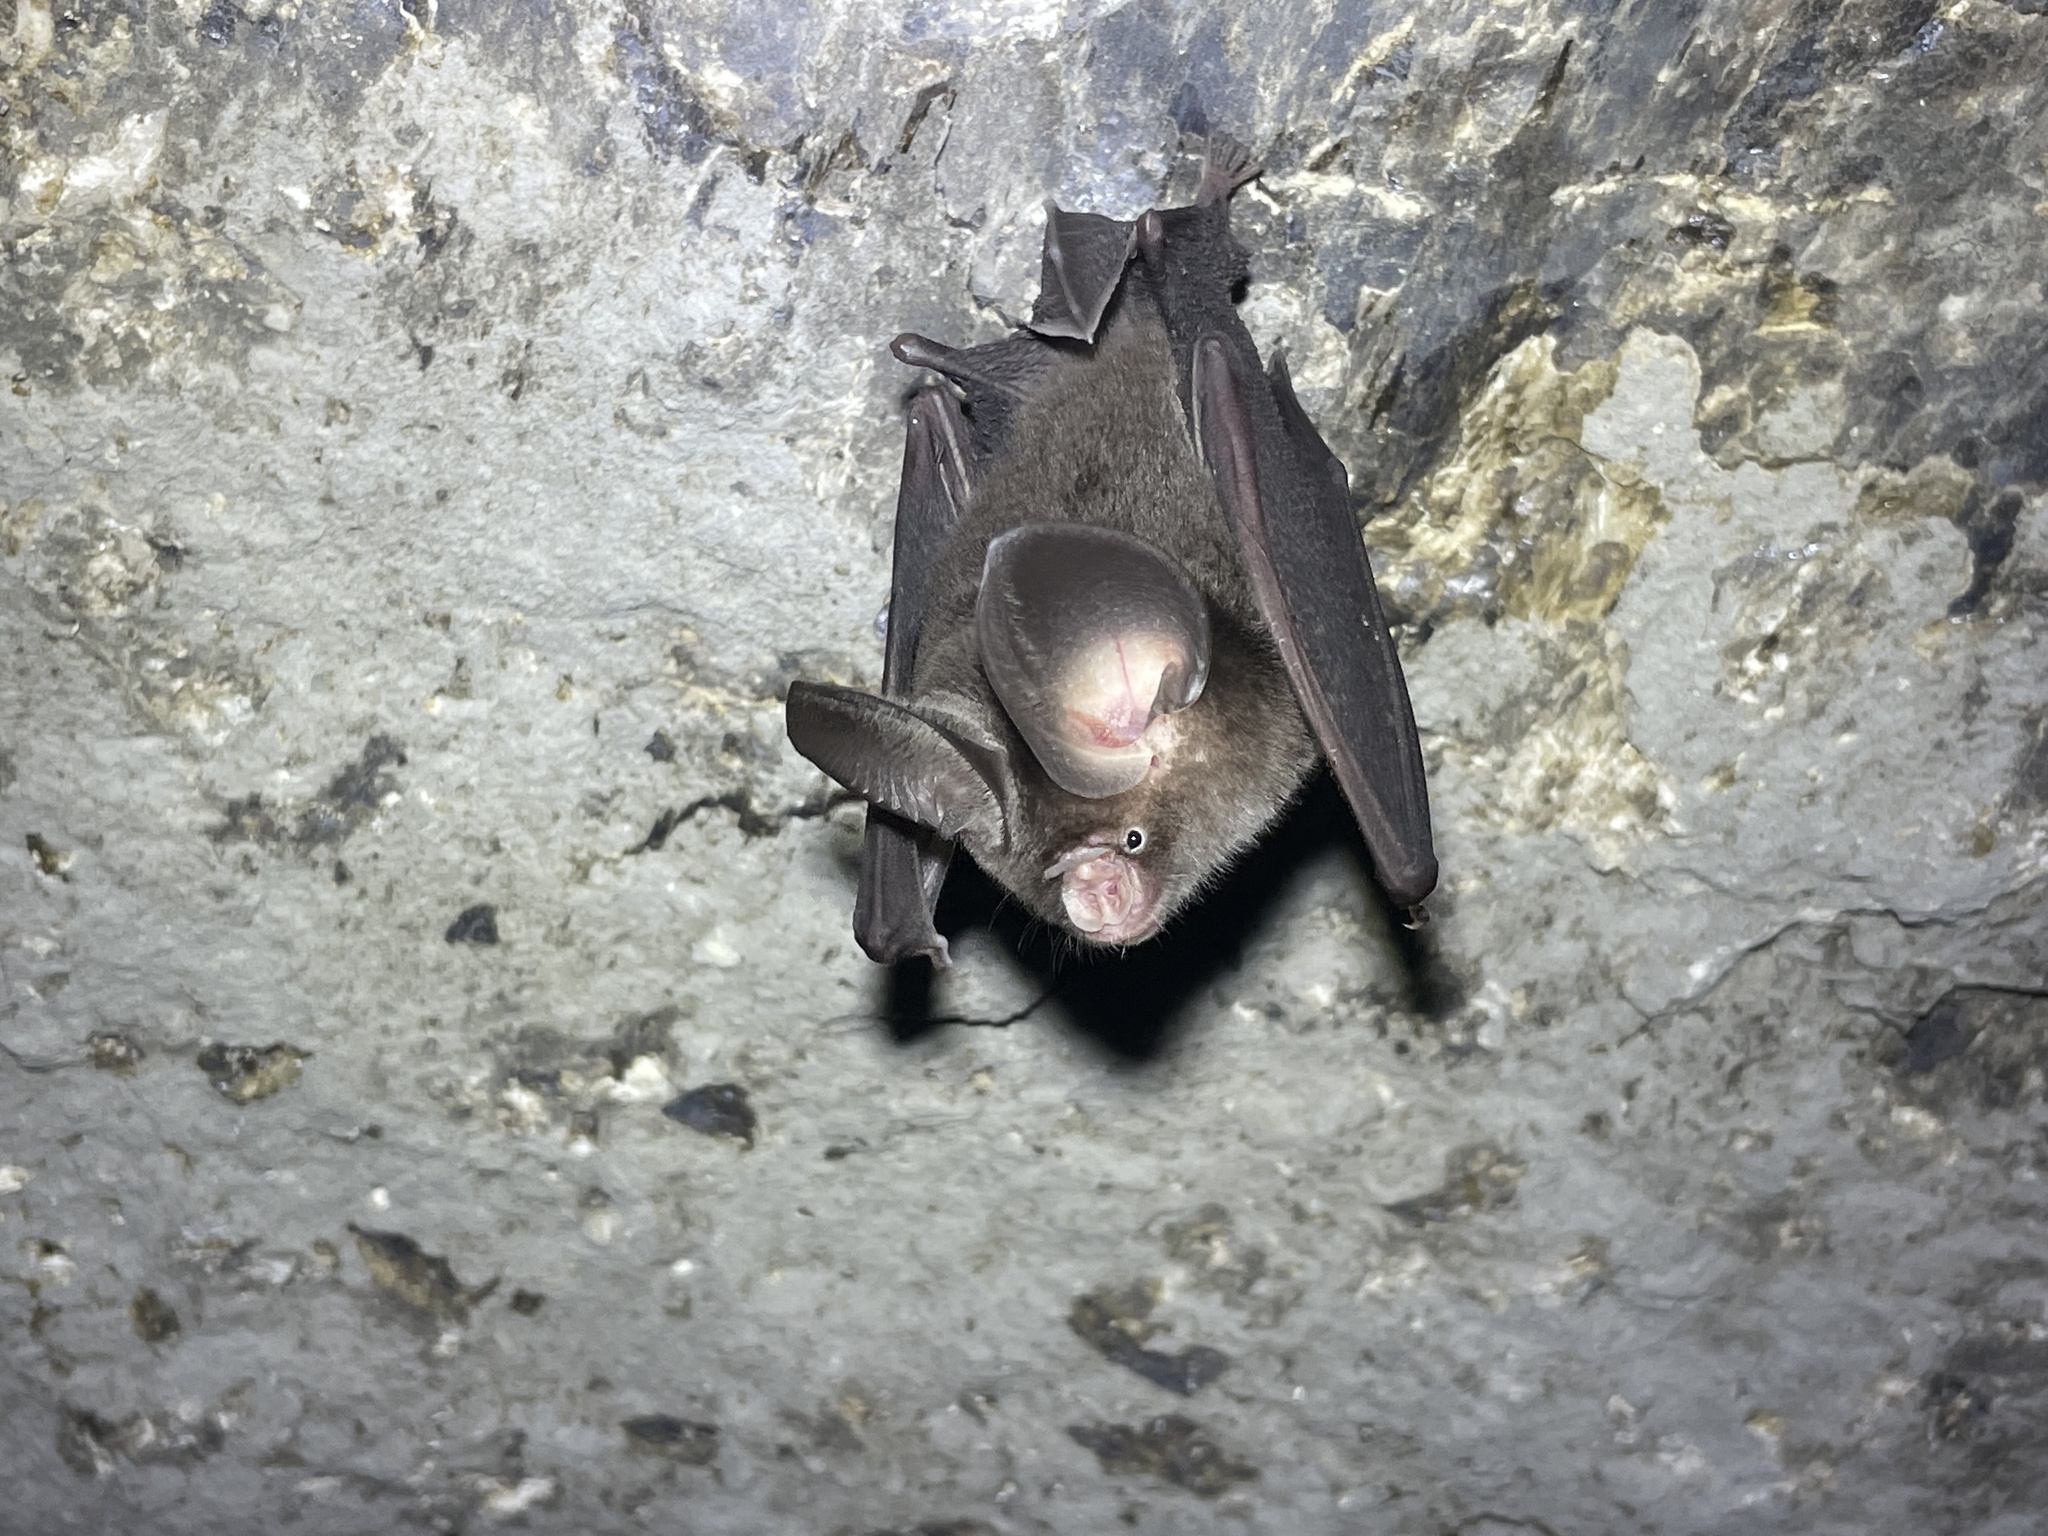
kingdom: Animalia
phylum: Chordata
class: Mammalia
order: Chiroptera
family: Hipposideridae
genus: Hipposideros
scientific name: Hipposideros gentilis
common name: Andersen's leaf-nosed bat
